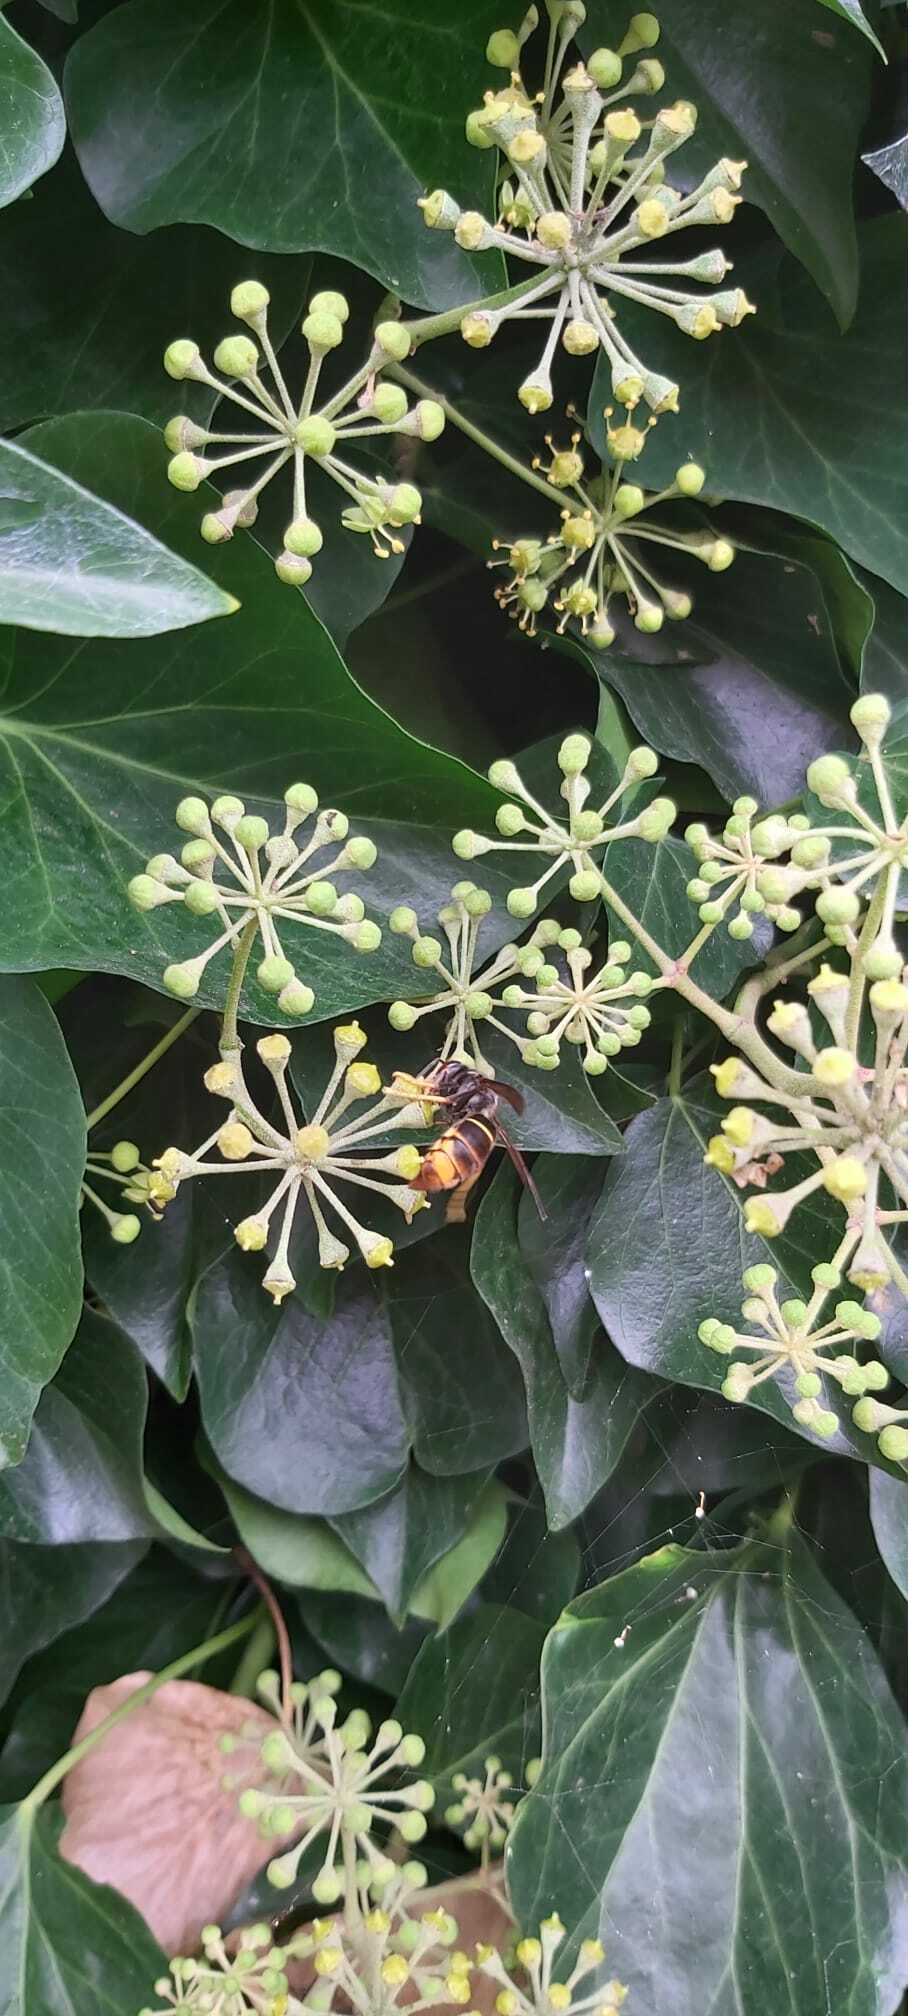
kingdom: Animalia
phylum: Arthropoda
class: Insecta
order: Hymenoptera
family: Vespidae
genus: Vespa
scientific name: Vespa velutina
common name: Asian hornet
